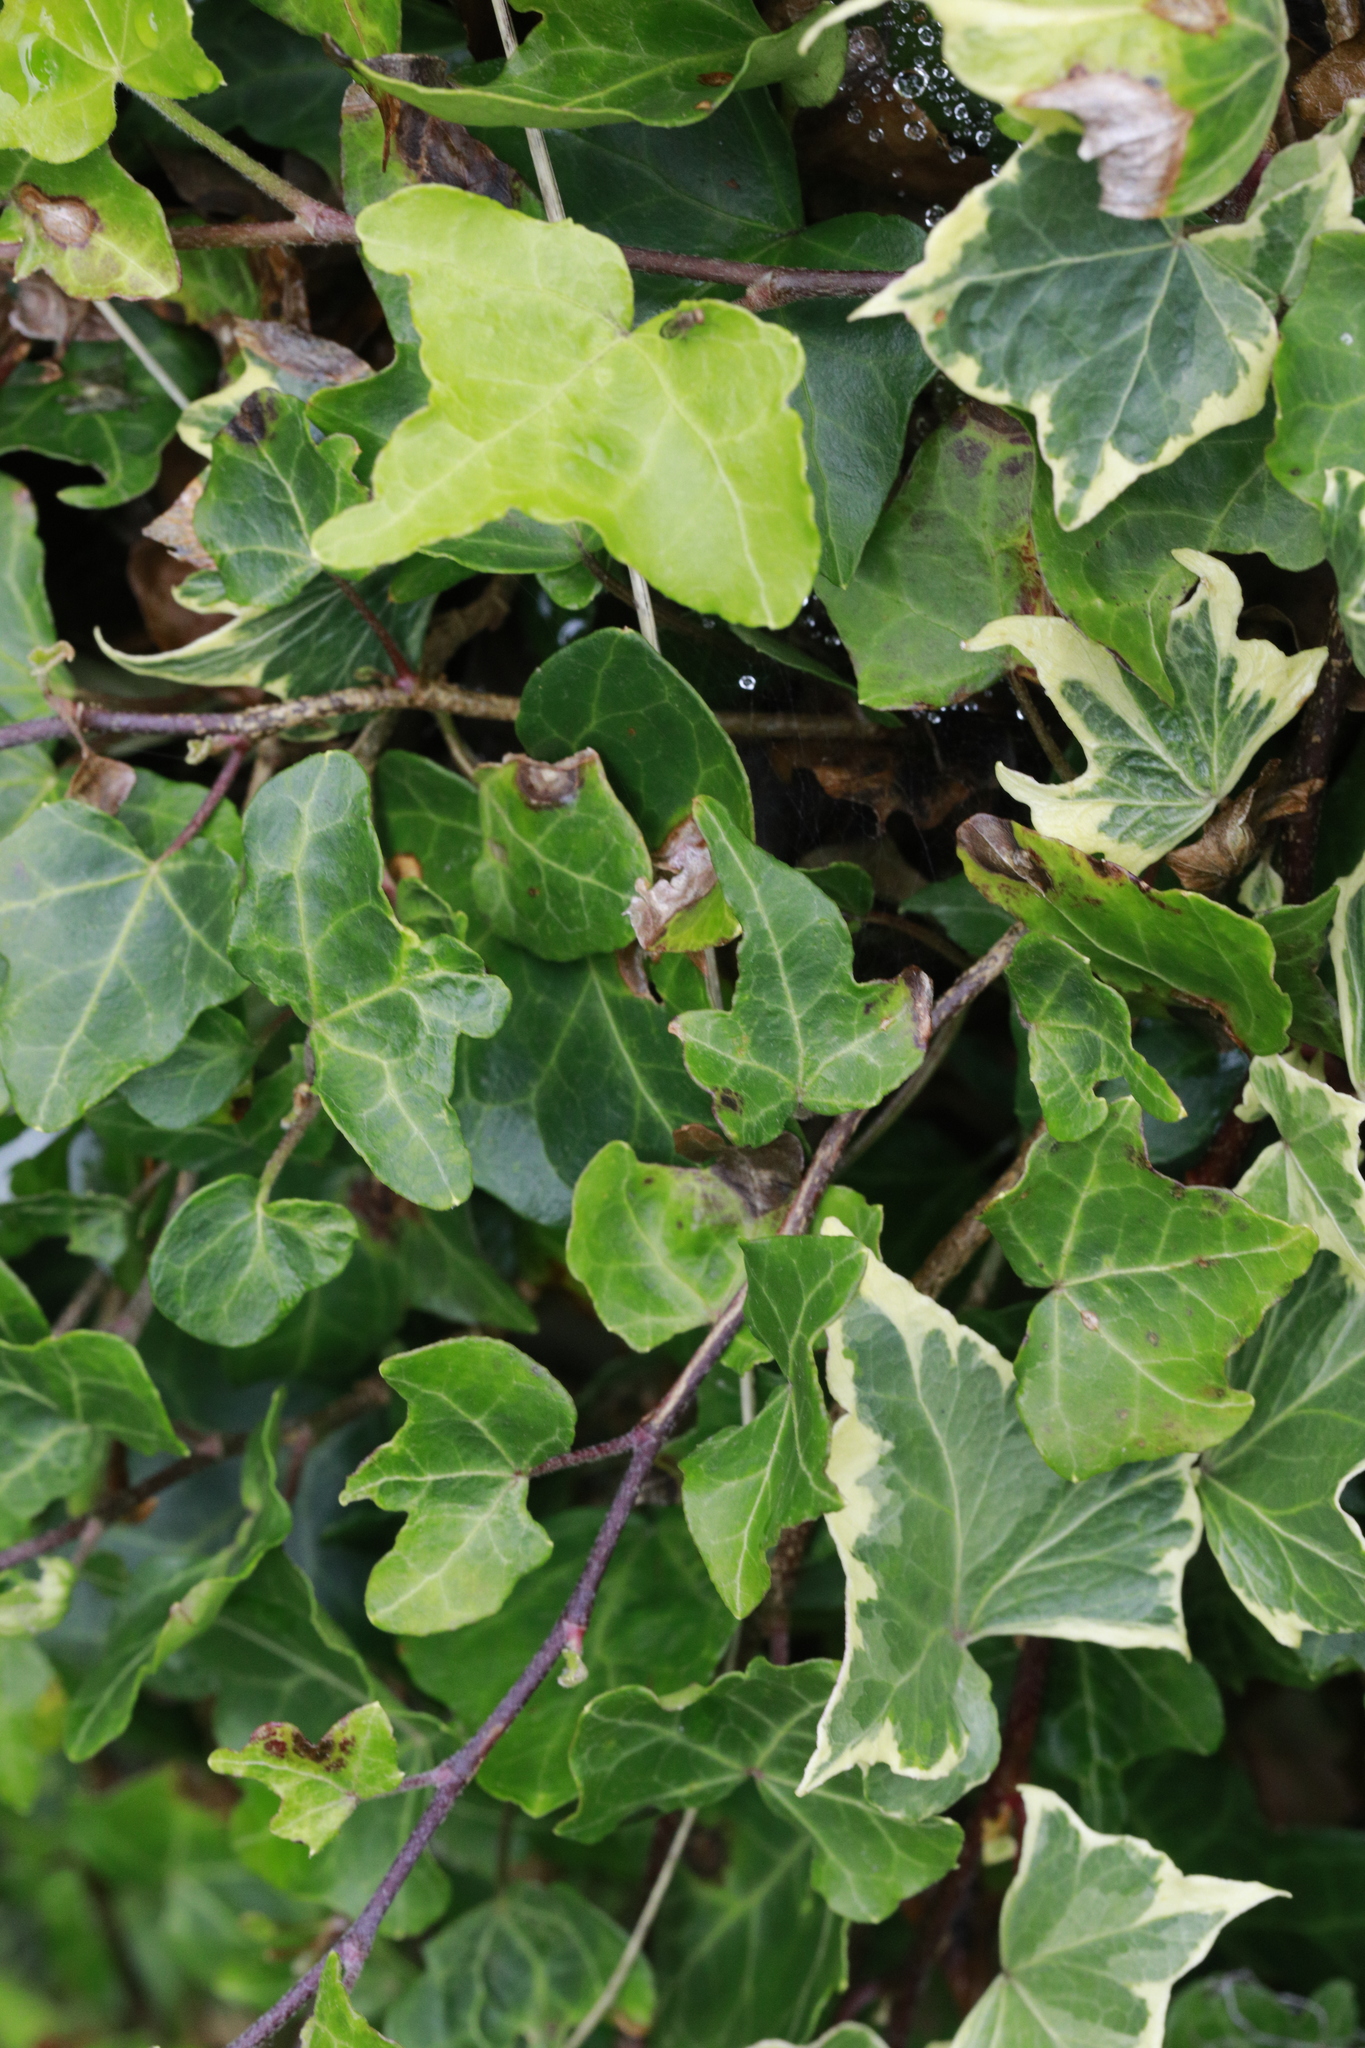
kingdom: Plantae
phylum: Tracheophyta
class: Magnoliopsida
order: Apiales
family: Araliaceae
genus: Hedera
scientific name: Hedera helix
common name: Ivy
